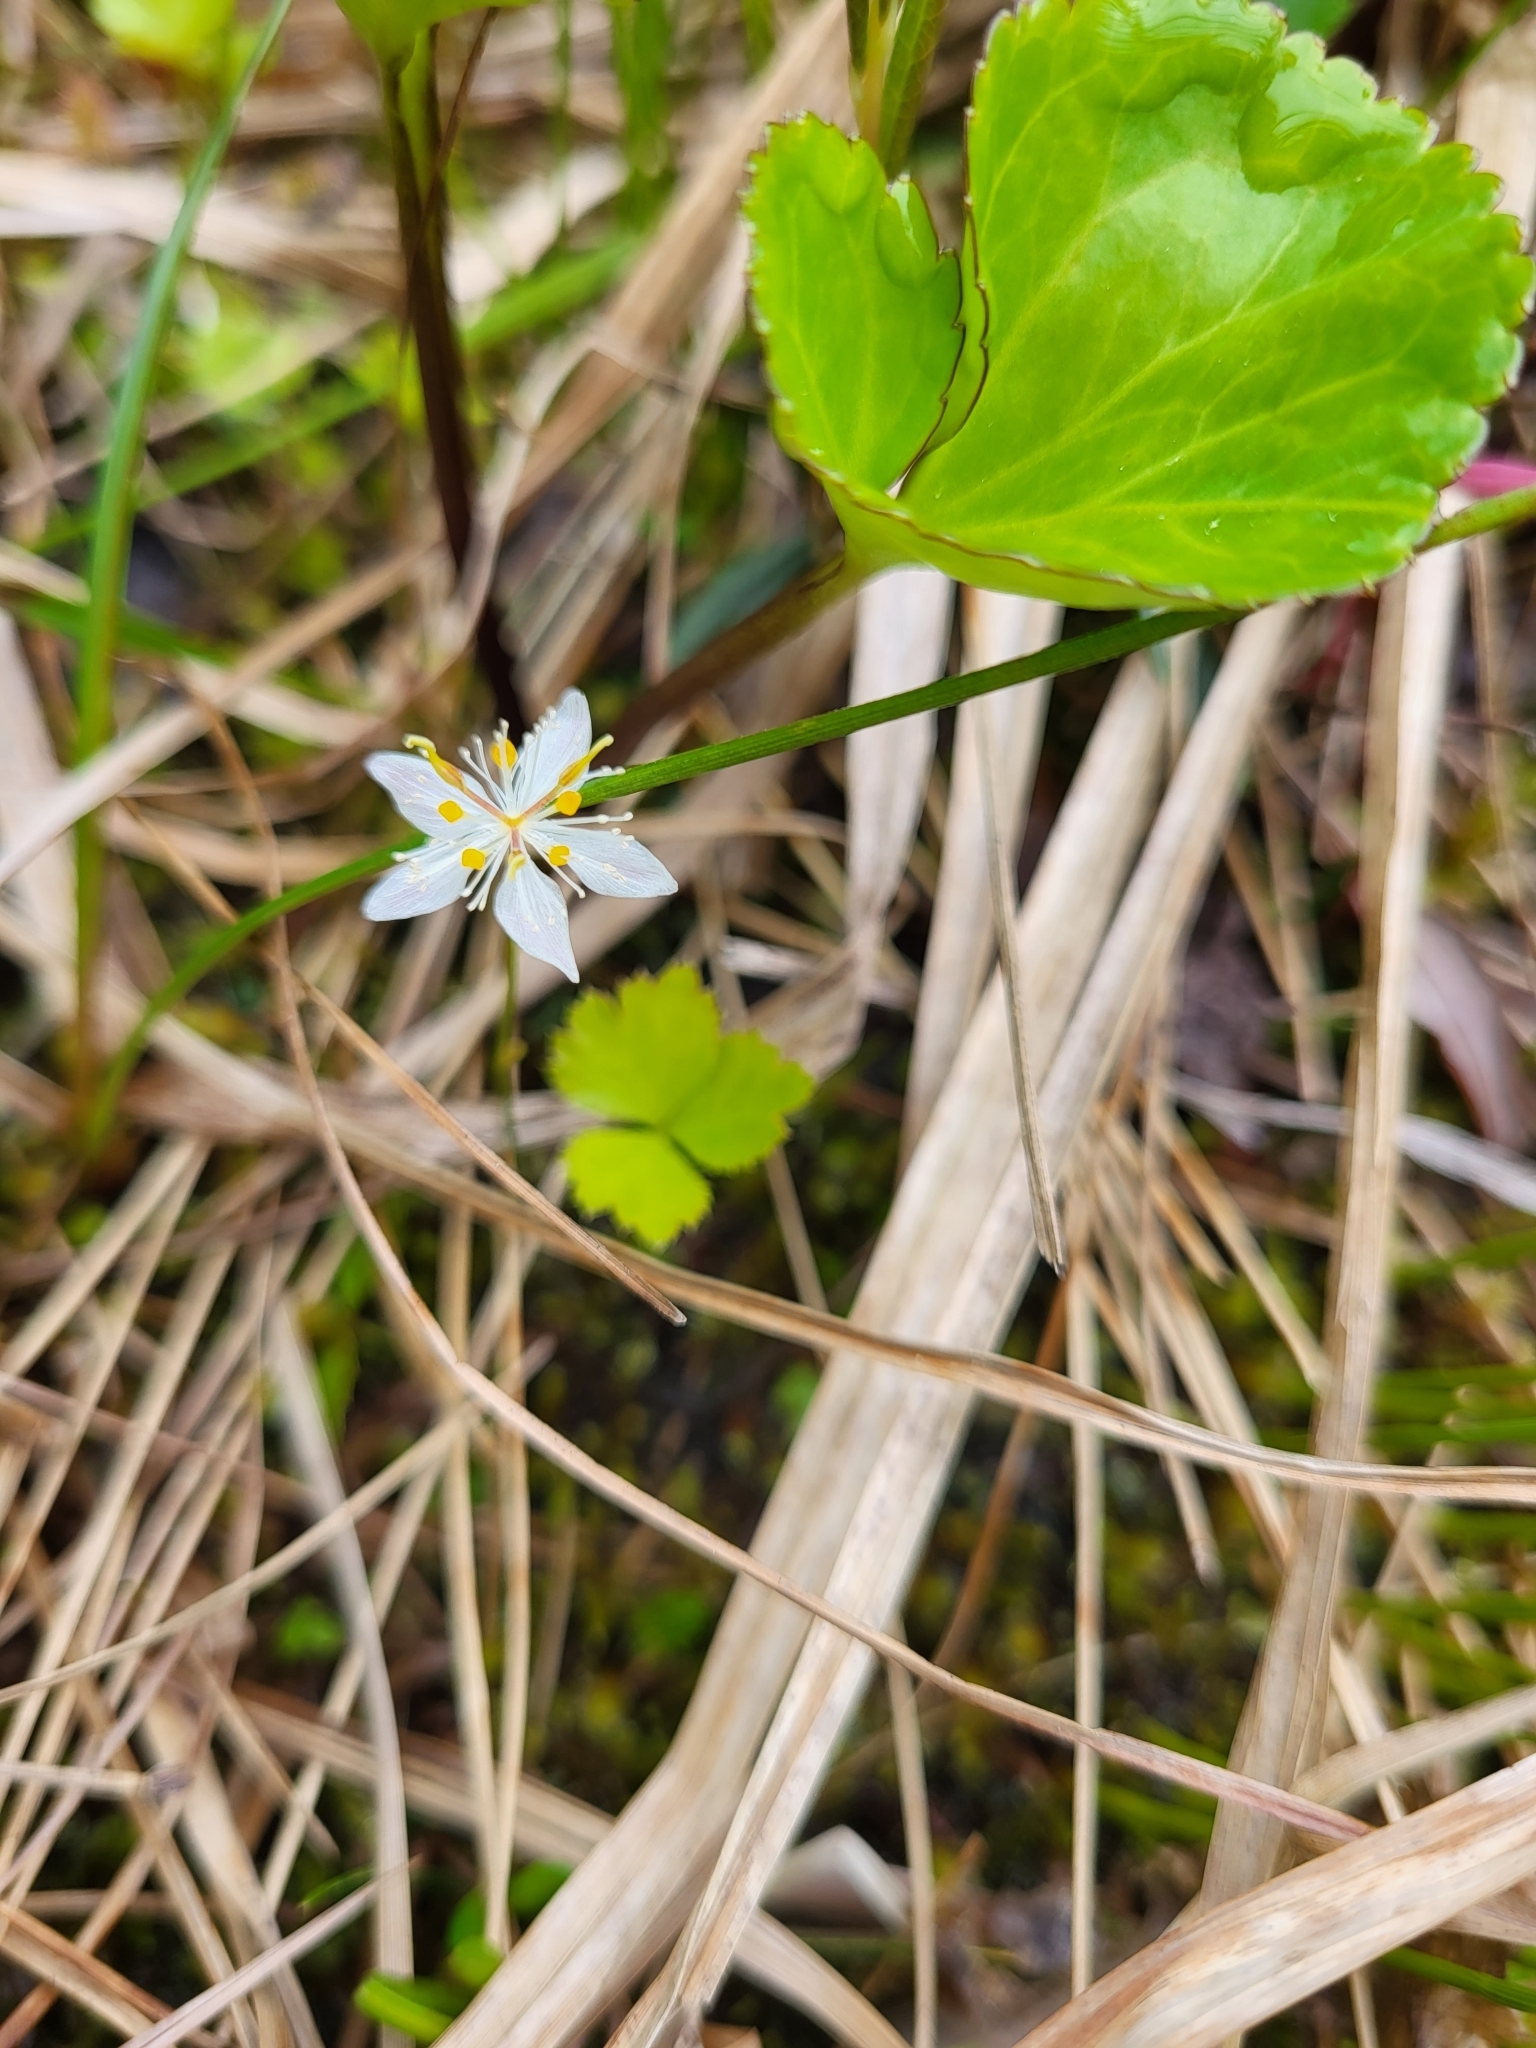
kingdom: Plantae
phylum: Tracheophyta
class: Magnoliopsida
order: Ranunculales
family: Ranunculaceae
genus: Coptis
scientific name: Coptis trifolia
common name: Canker-root
